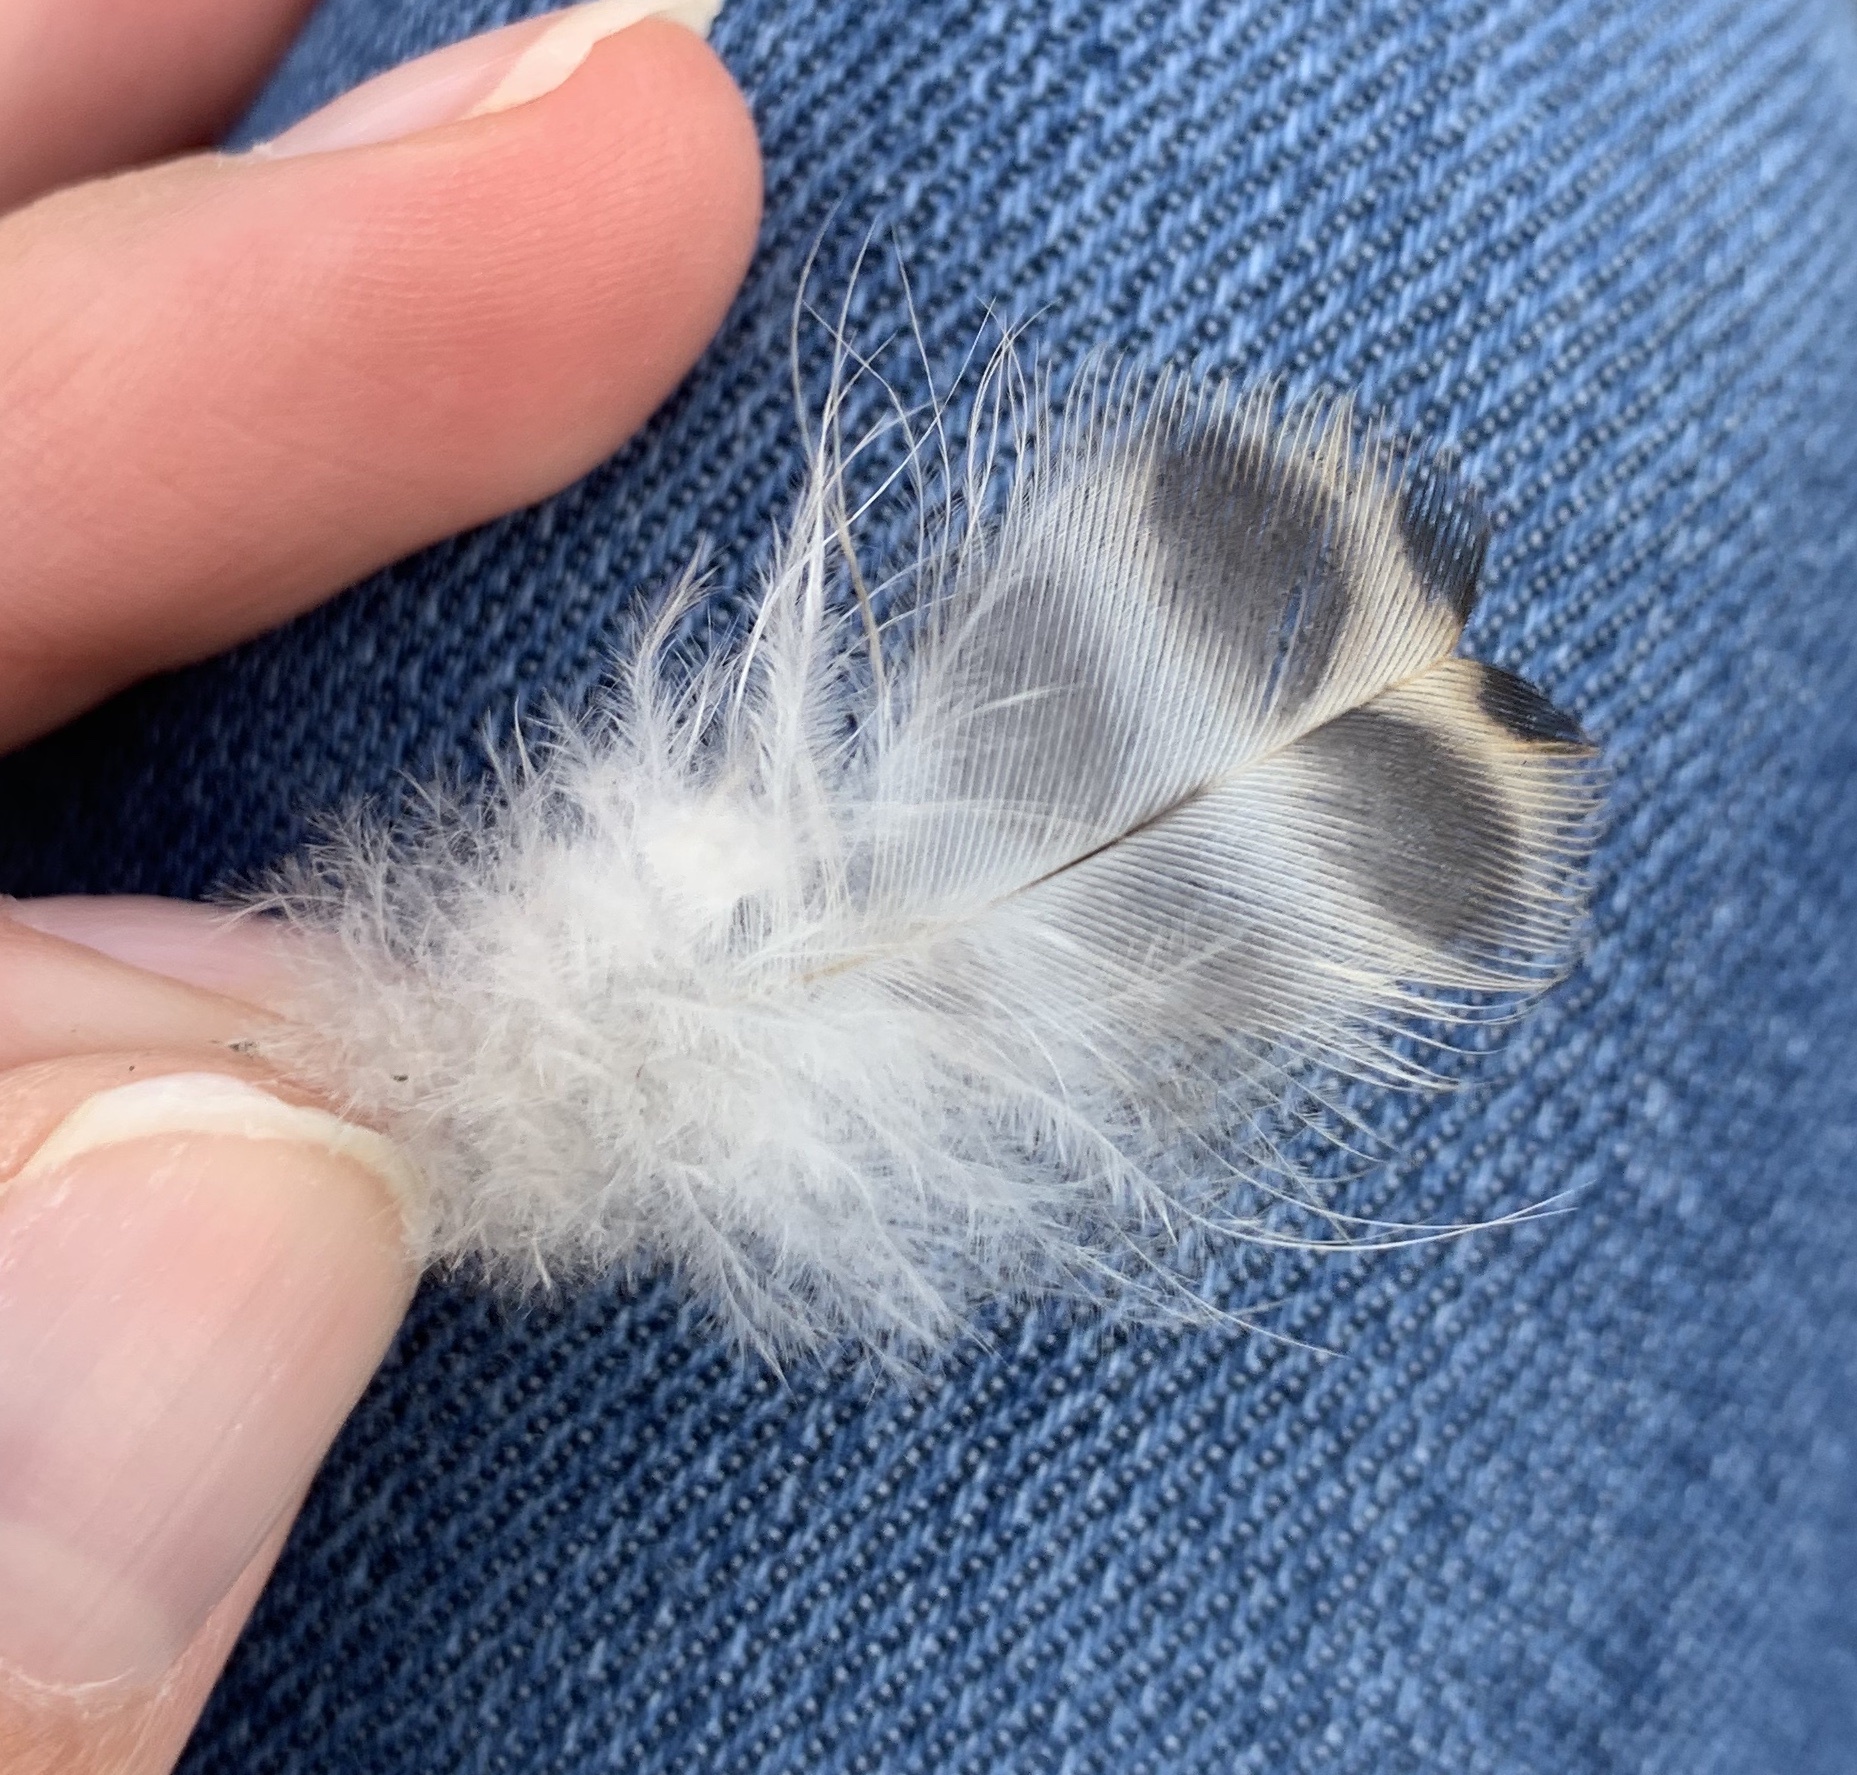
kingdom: Animalia
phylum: Chordata
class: Aves
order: Anseriformes
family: Anatidae
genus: Anas
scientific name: Anas platyrhynchos
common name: Mallard
